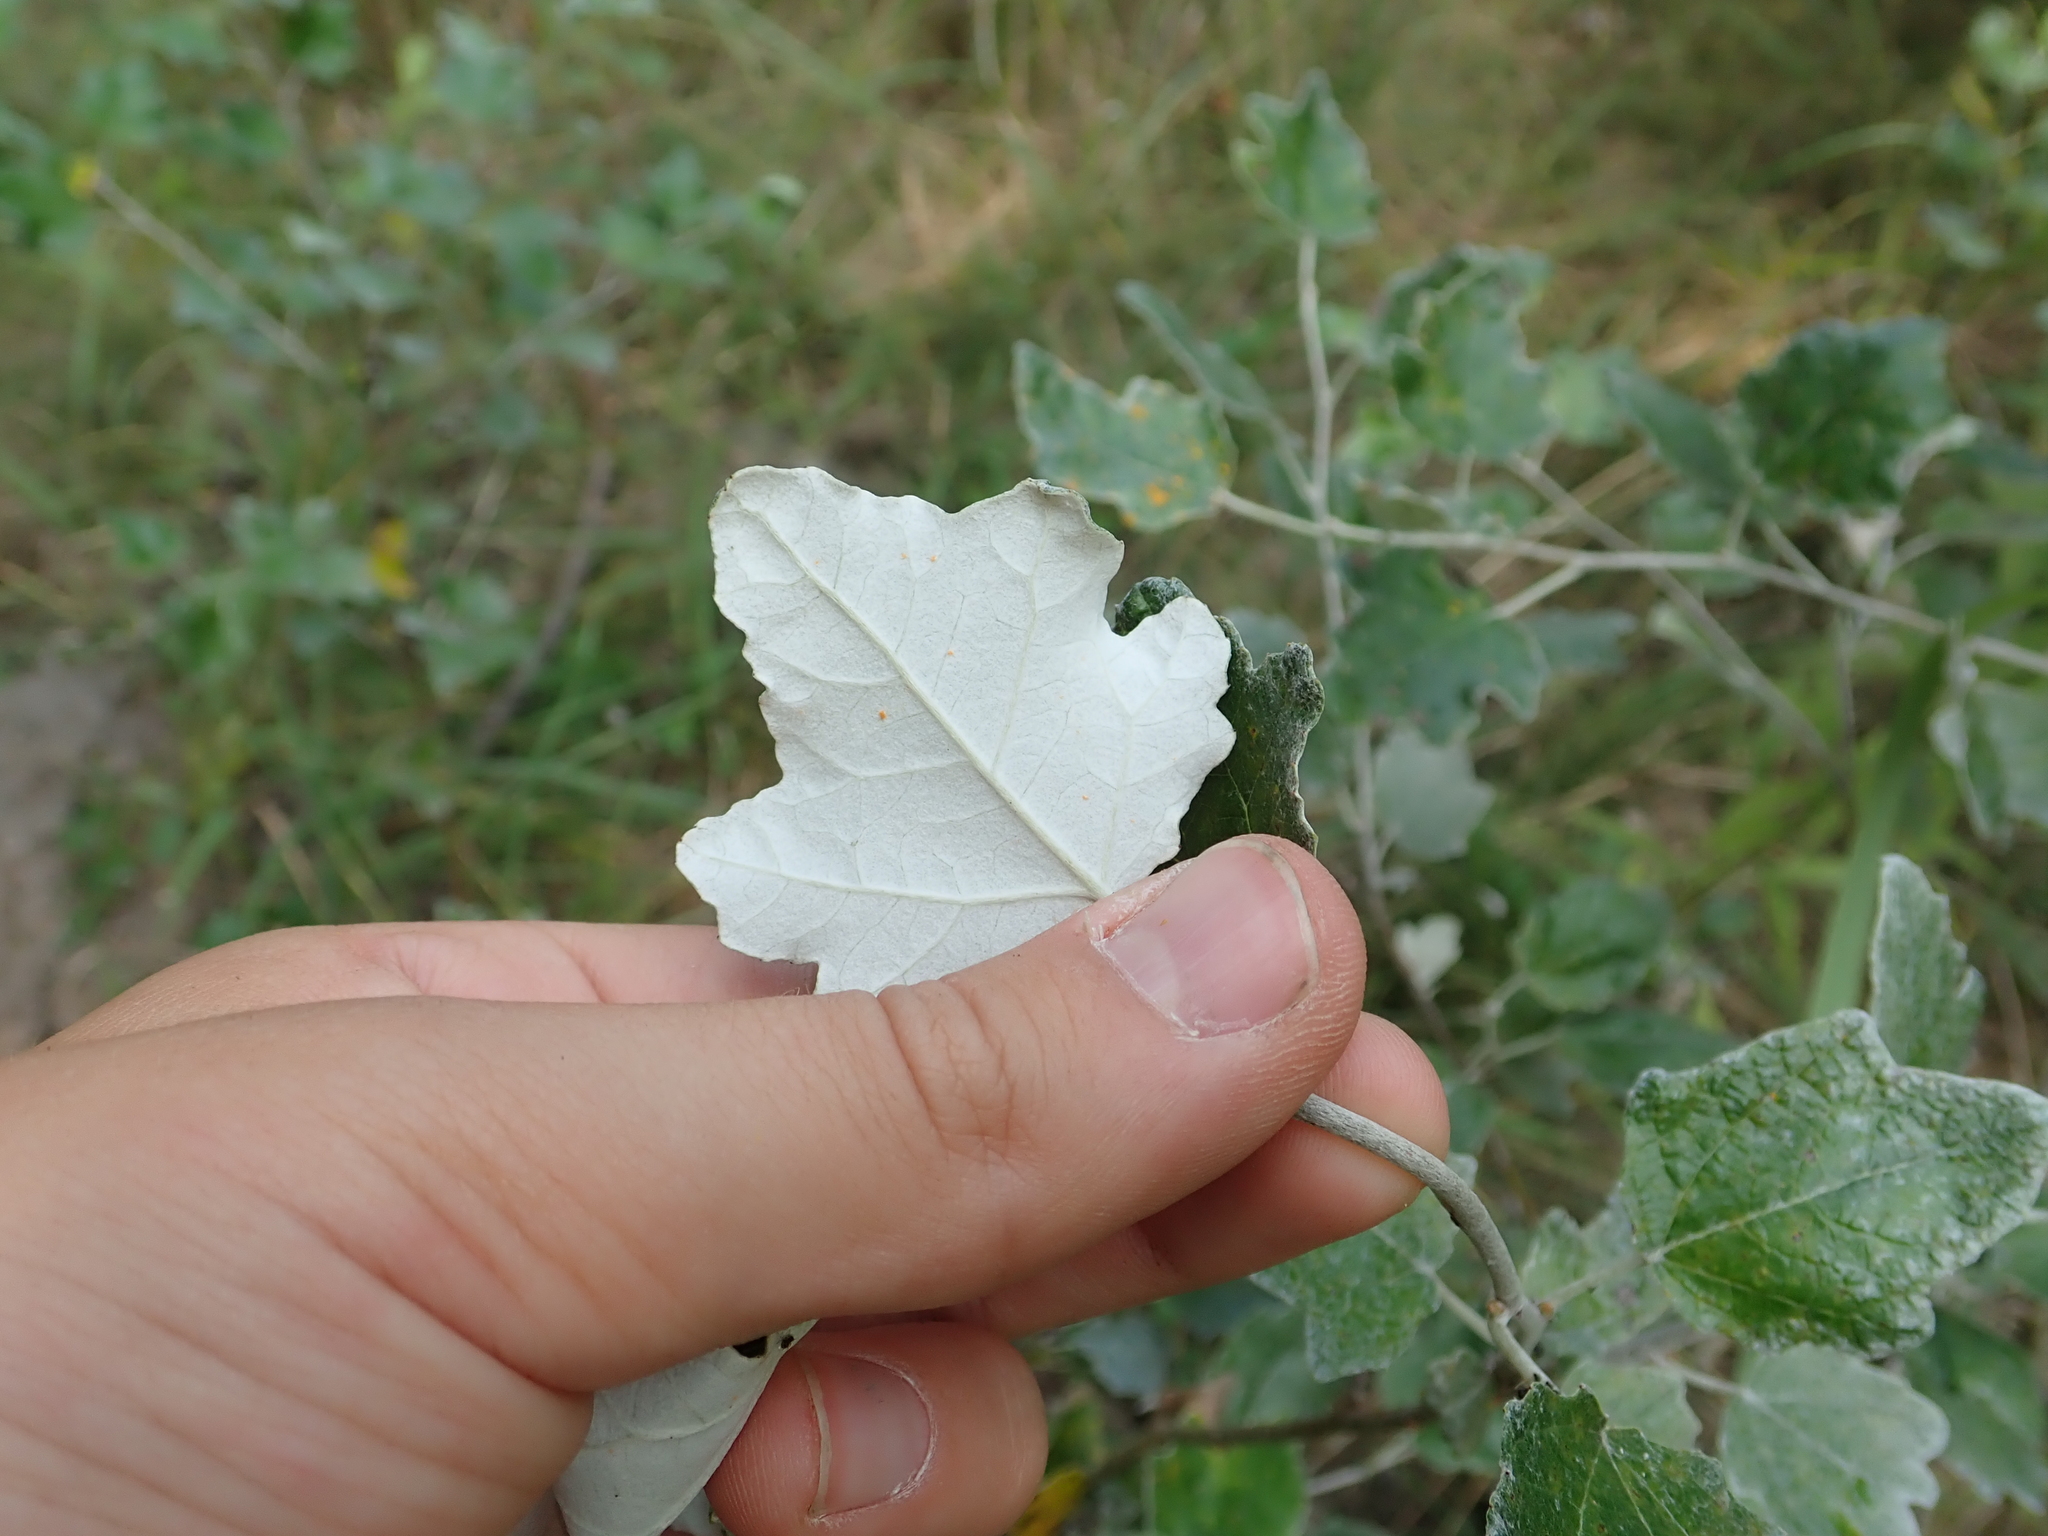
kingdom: Plantae
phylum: Tracheophyta
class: Magnoliopsida
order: Malpighiales
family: Salicaceae
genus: Populus
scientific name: Populus alba
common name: White poplar
